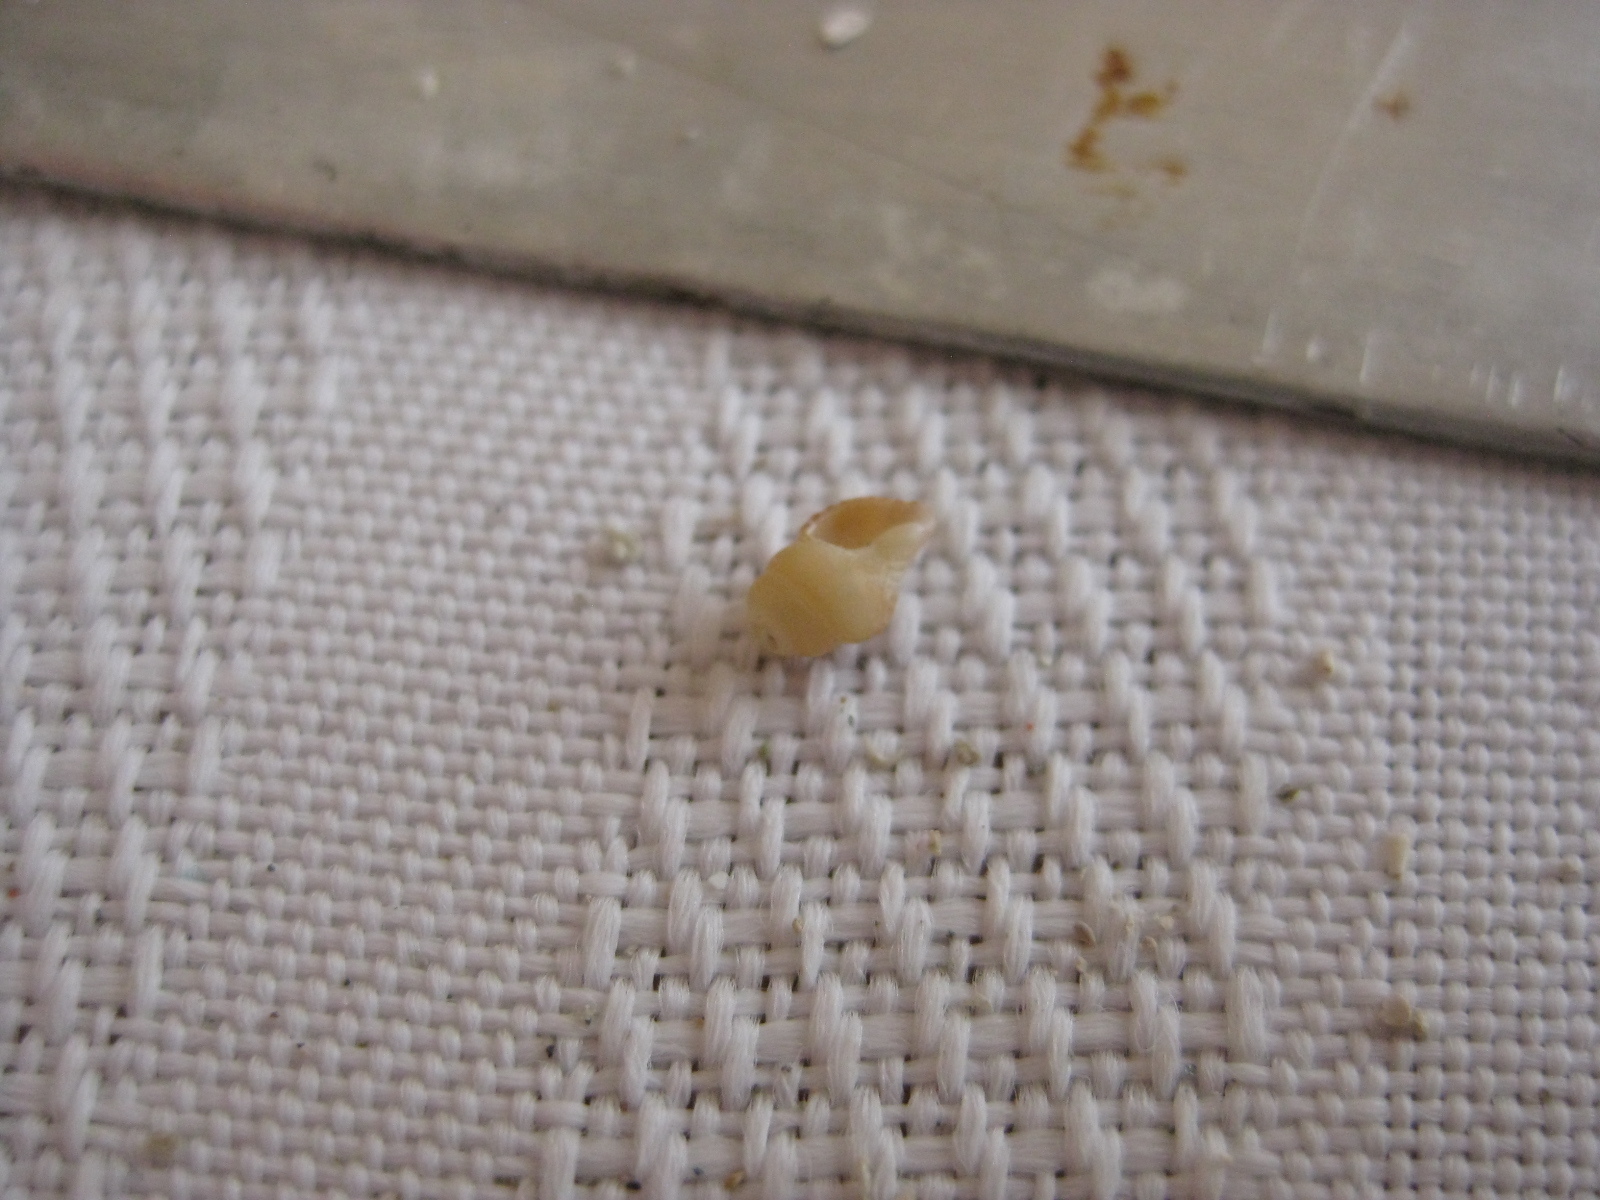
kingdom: Animalia
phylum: Mollusca
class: Gastropoda
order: Neogastropoda
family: Austrosiphonidae
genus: Penion
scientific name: Penion sulcatus
